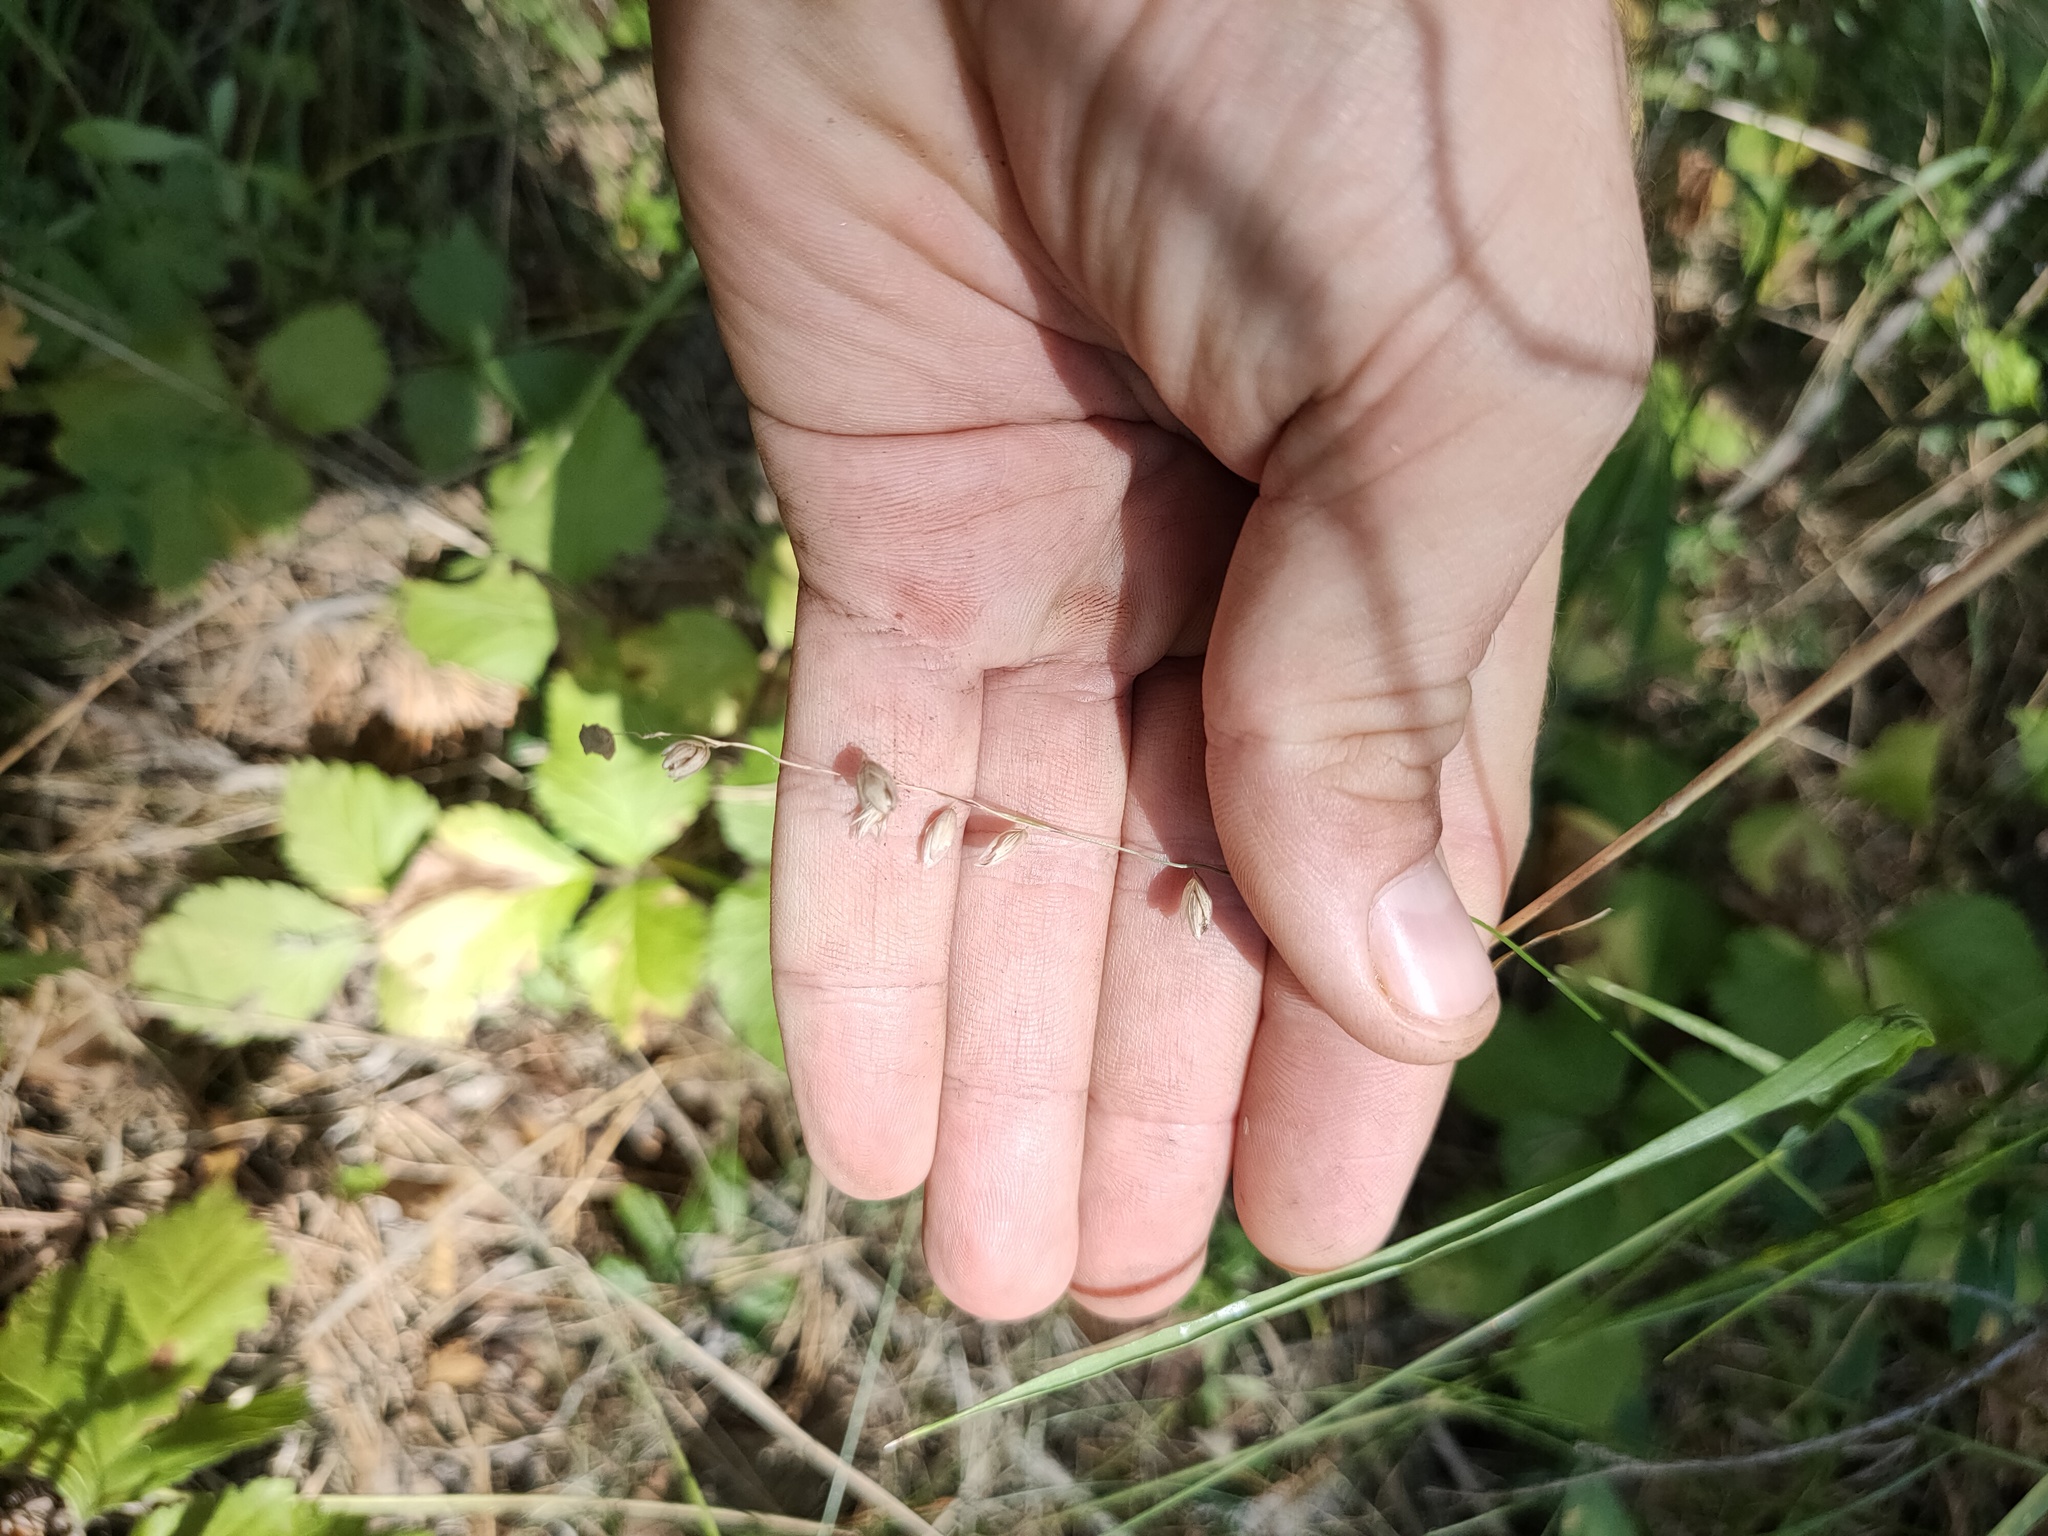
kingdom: Plantae
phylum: Tracheophyta
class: Liliopsida
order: Poales
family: Poaceae
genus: Melica
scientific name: Melica nutans
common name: Mountain melick
